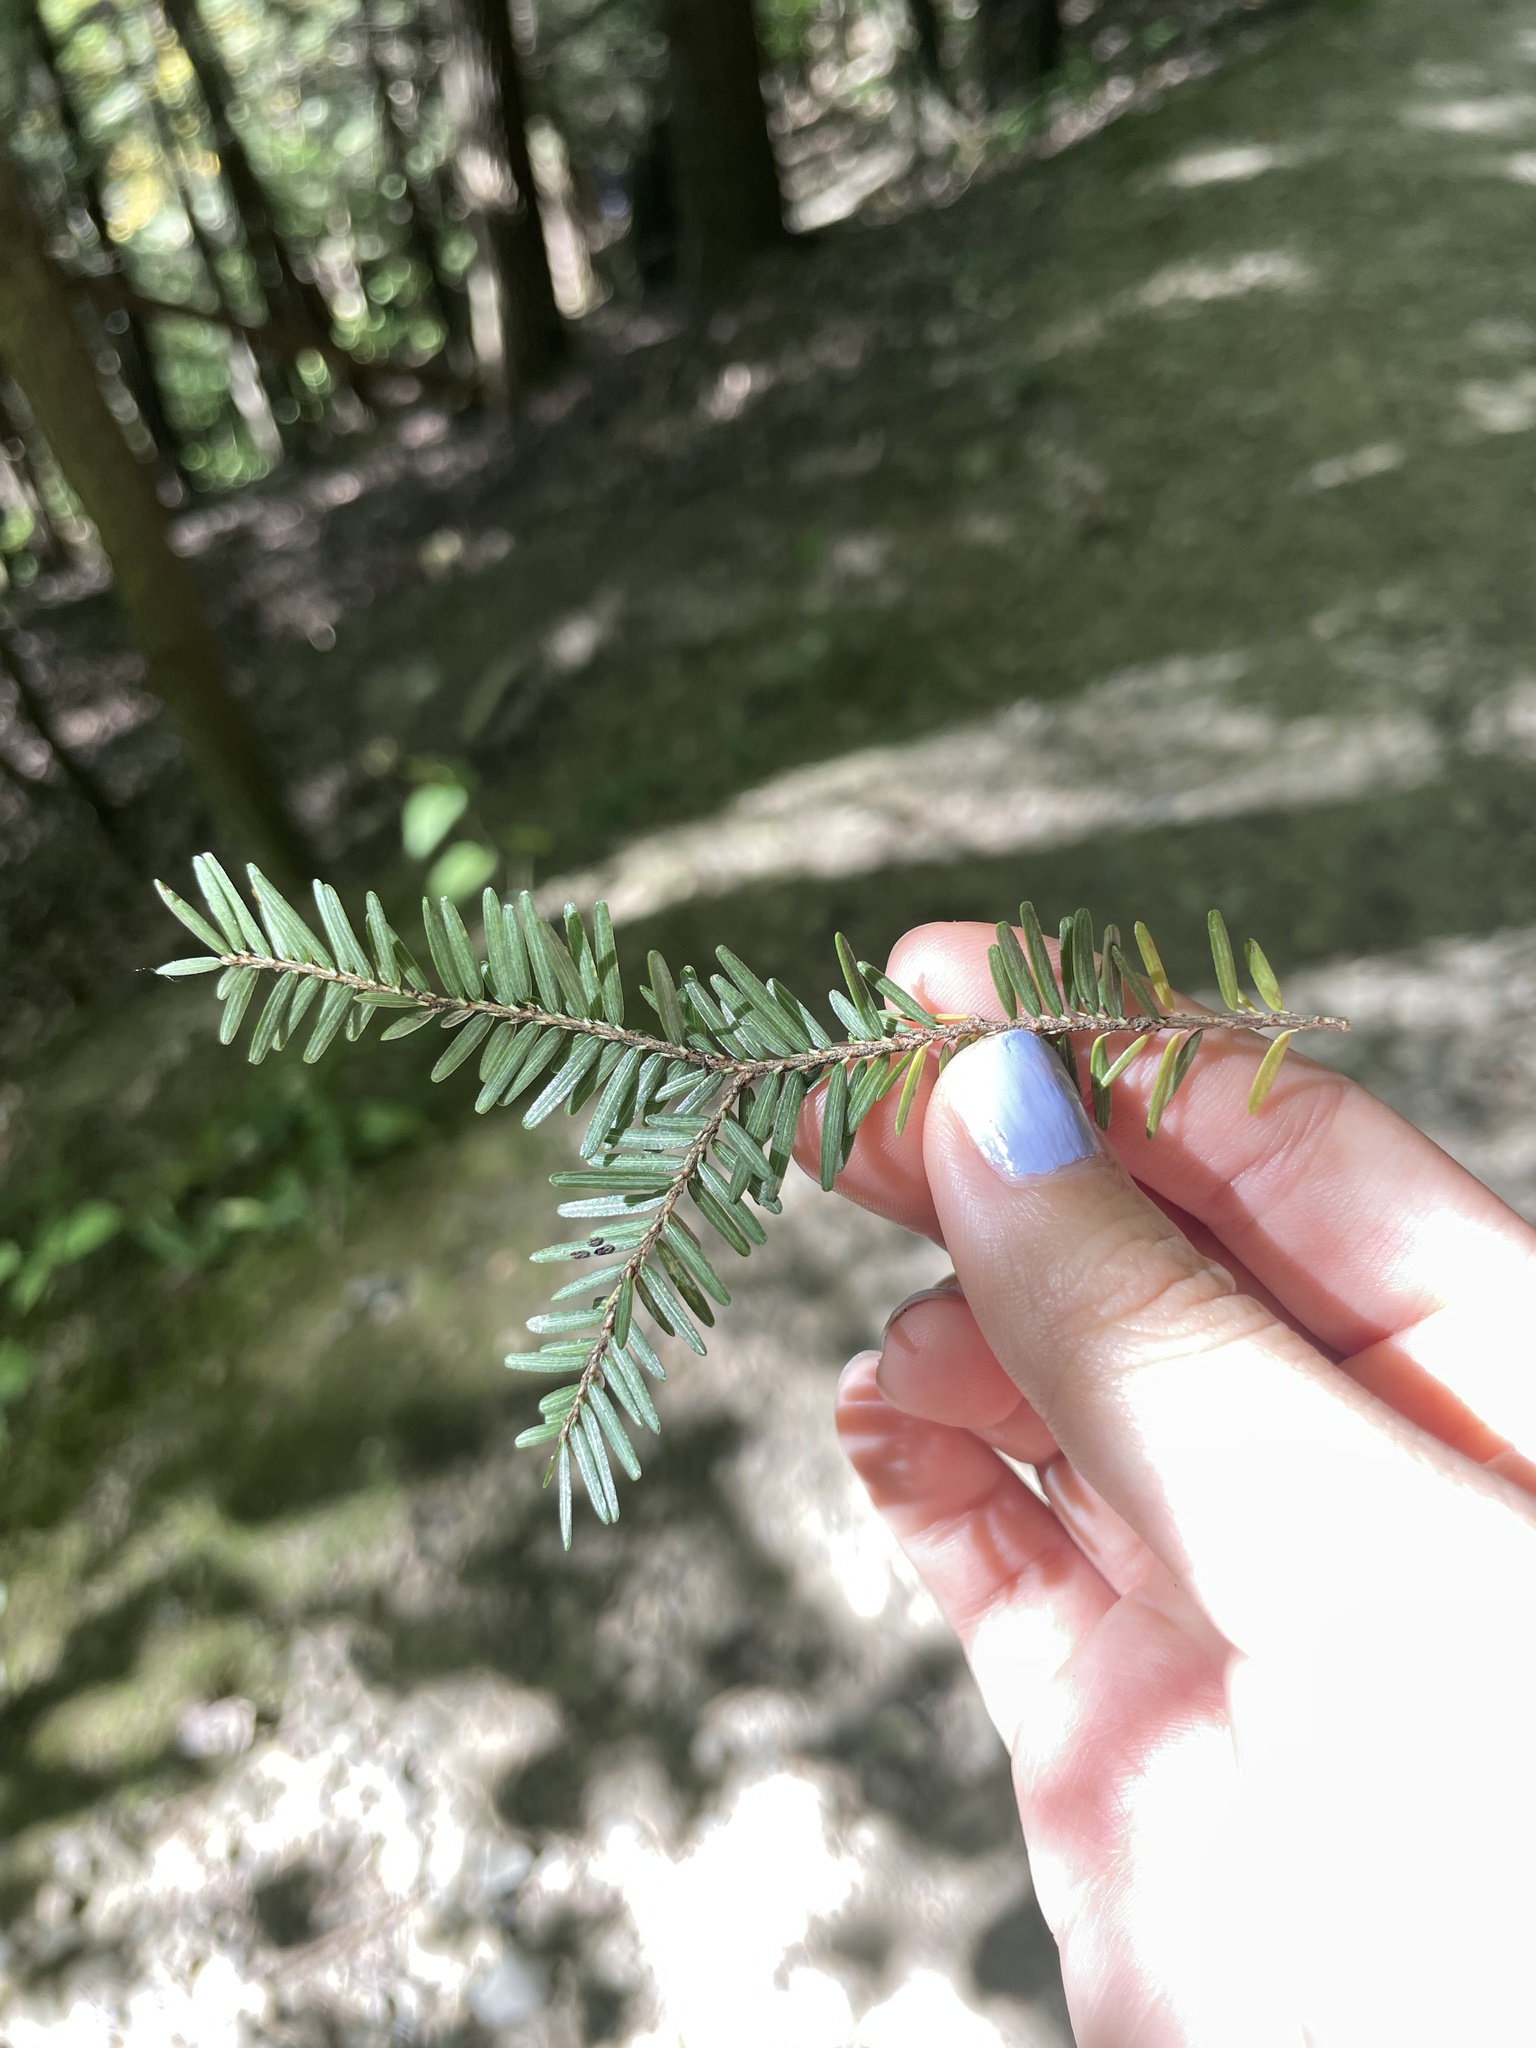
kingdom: Plantae
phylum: Tracheophyta
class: Pinopsida
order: Pinales
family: Pinaceae
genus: Tsuga
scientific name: Tsuga canadensis
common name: Eastern hemlock
